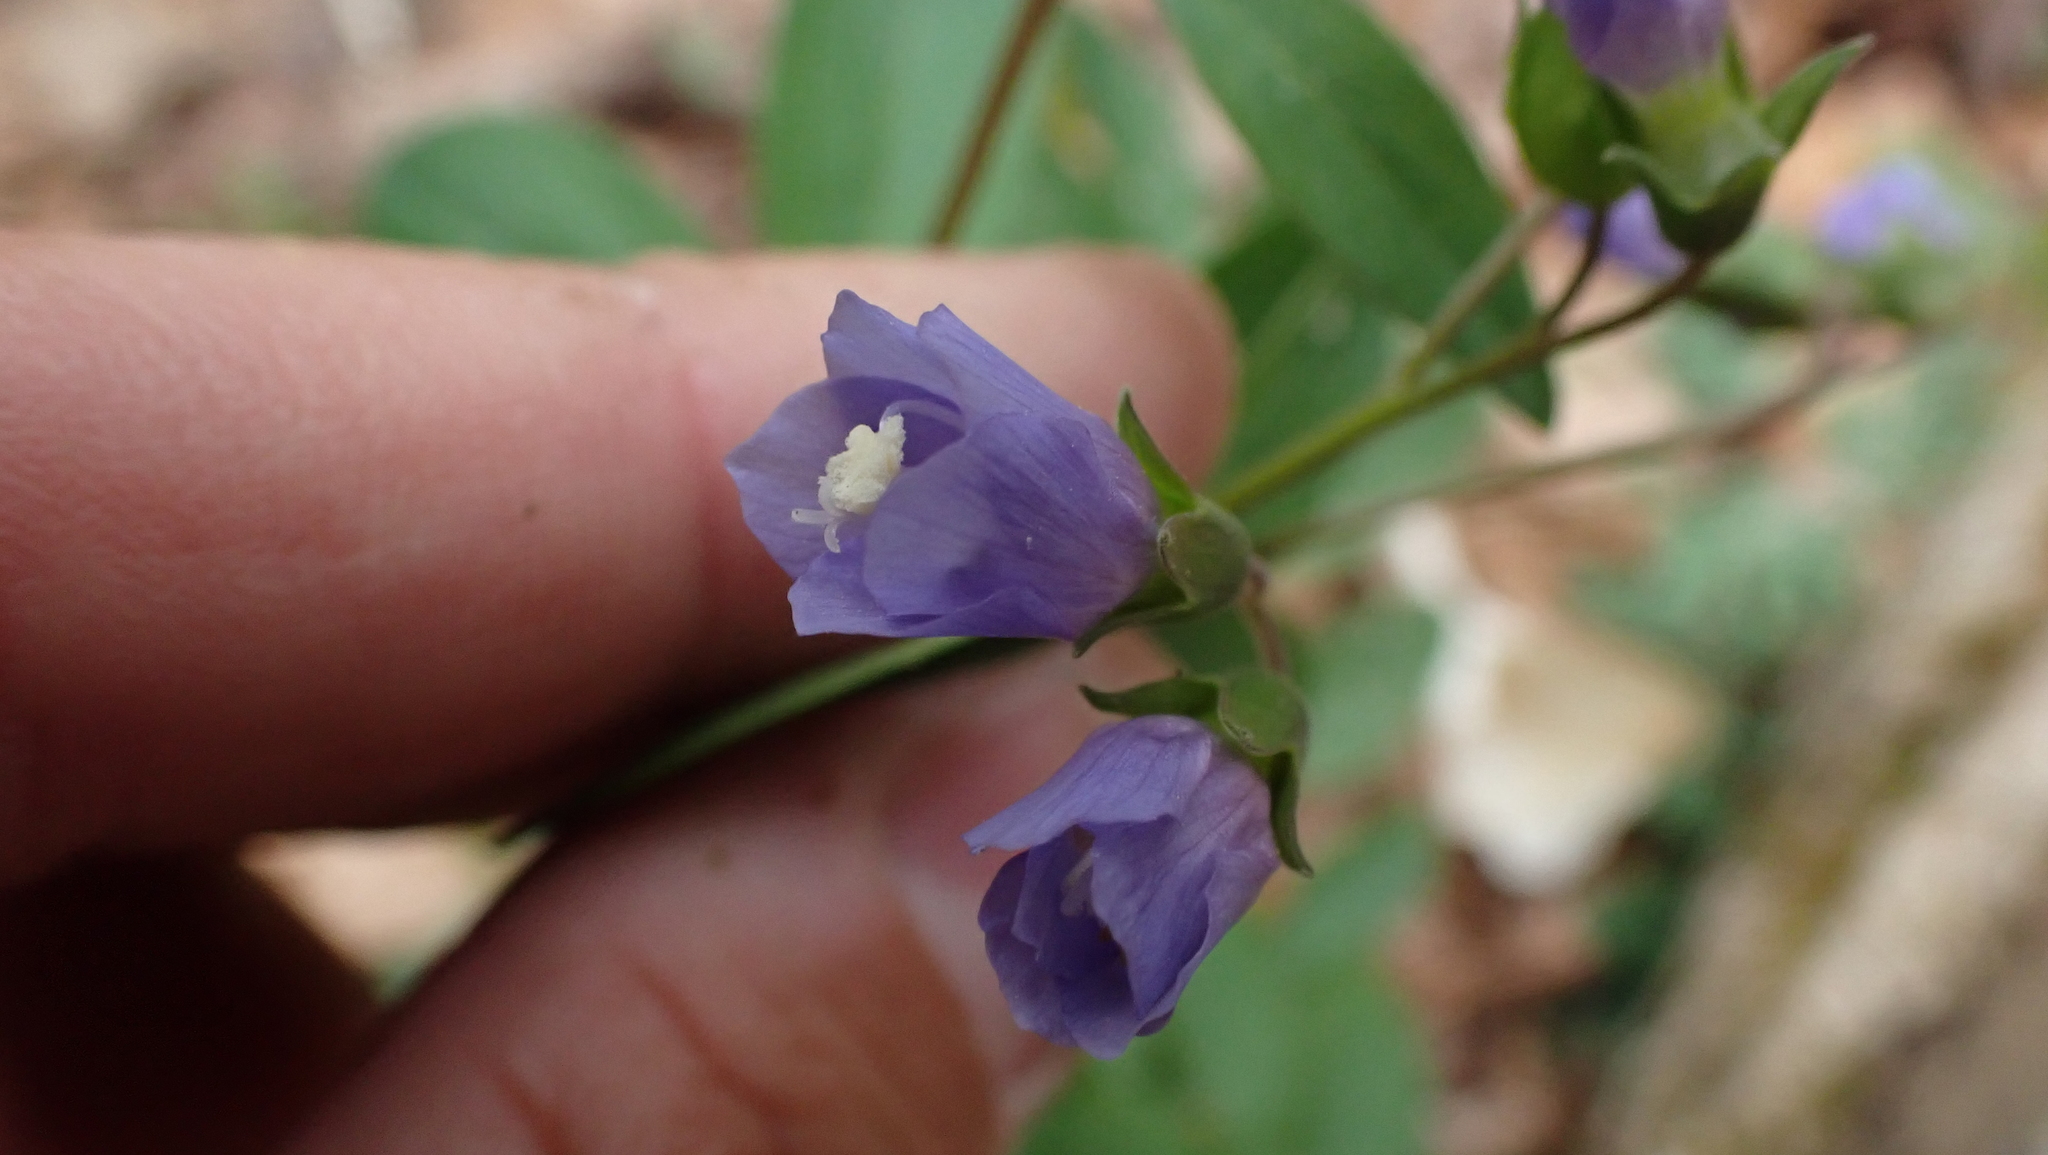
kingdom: Plantae
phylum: Tracheophyta
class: Magnoliopsida
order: Ericales
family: Polemoniaceae
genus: Polemonium
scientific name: Polemonium reptans
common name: Creeping jacob's-ladder
